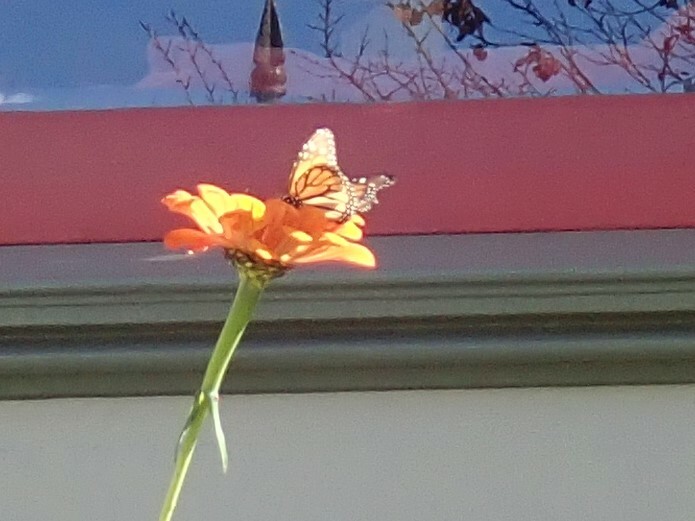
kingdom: Animalia
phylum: Arthropoda
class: Insecta
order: Lepidoptera
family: Nymphalidae
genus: Danaus
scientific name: Danaus plexippus
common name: Monarch
